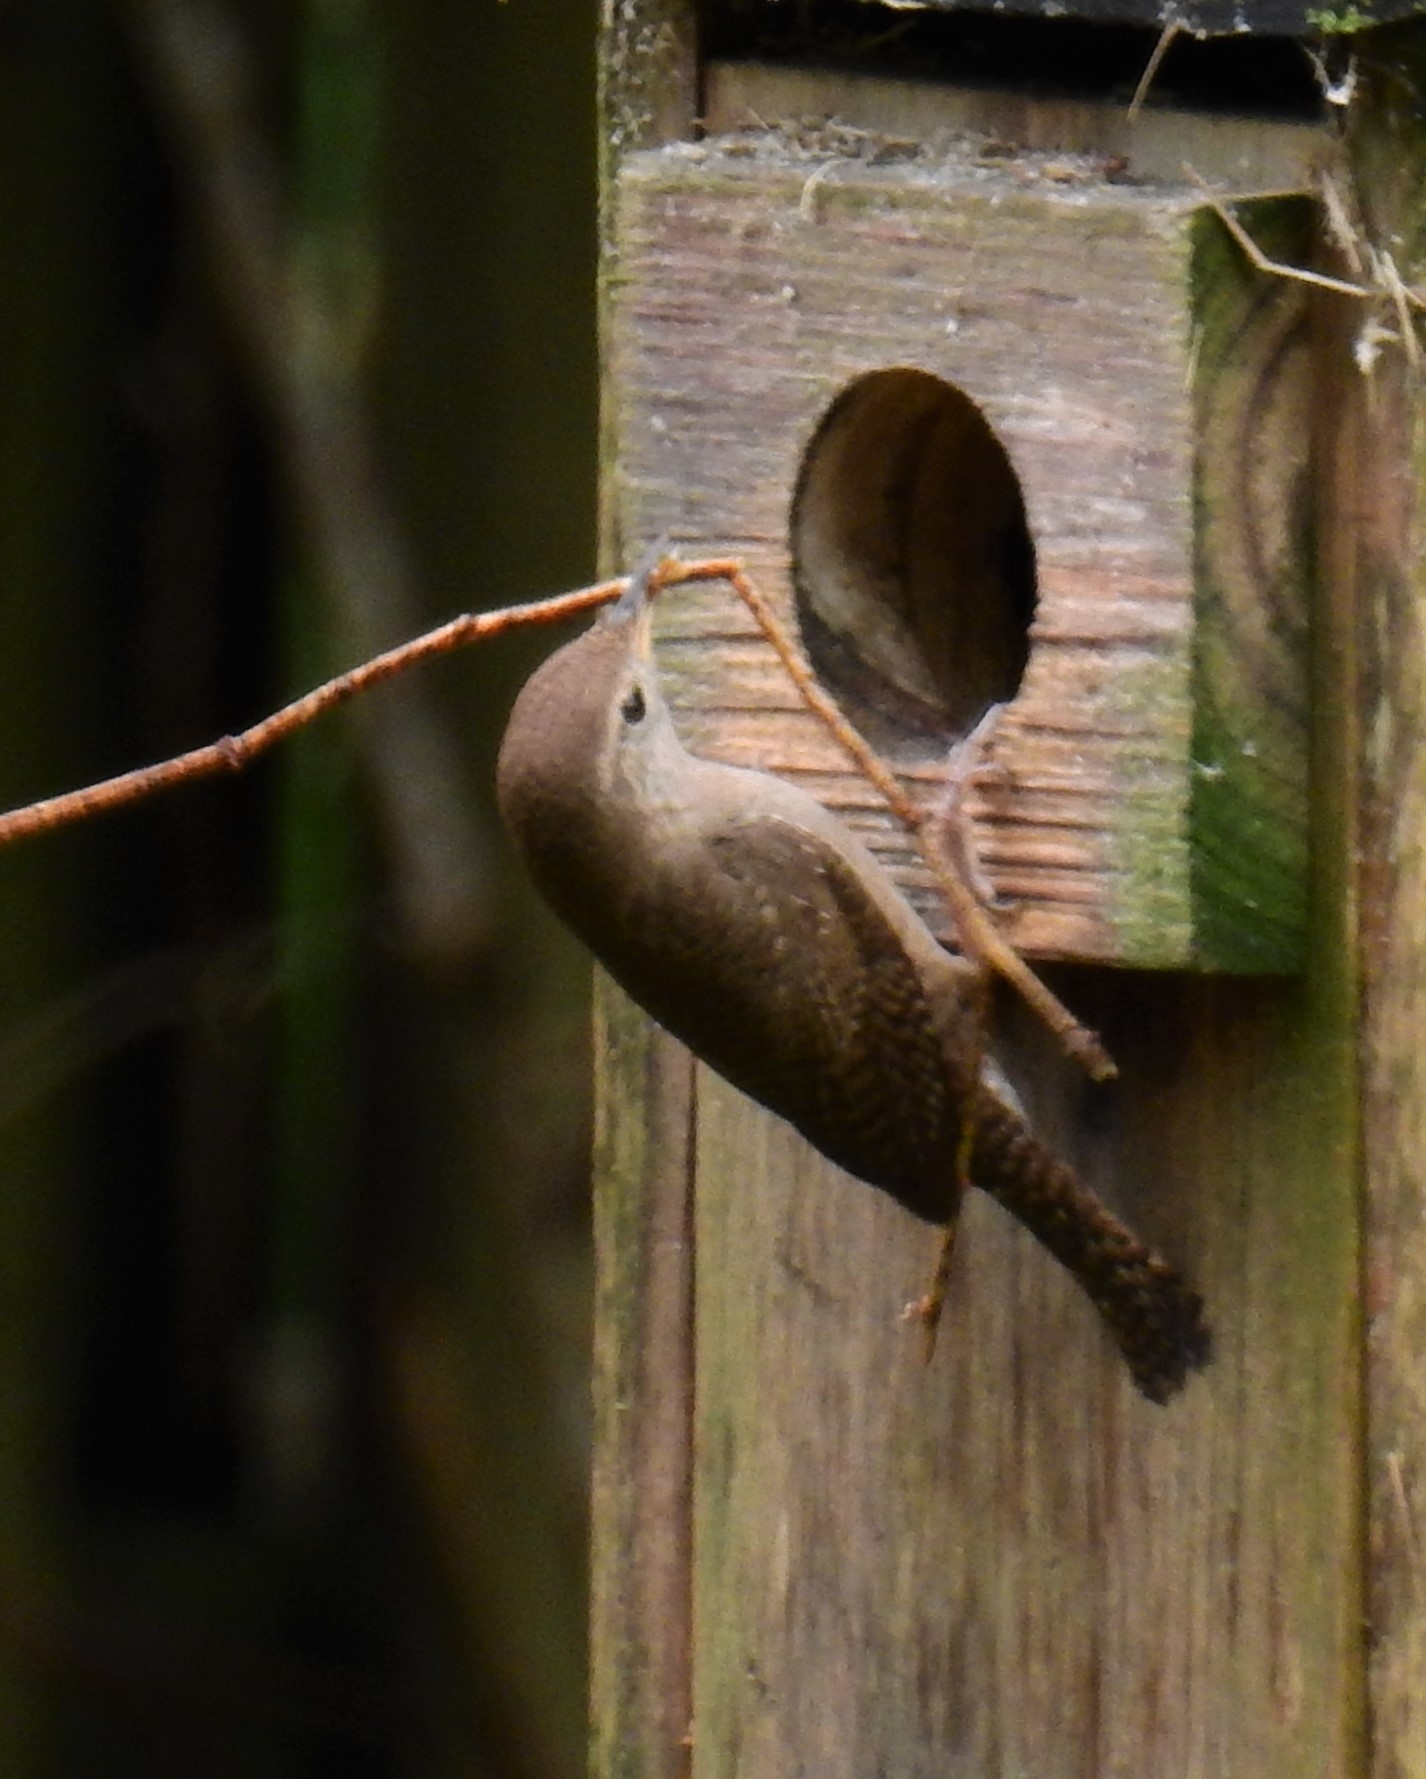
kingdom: Animalia
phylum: Chordata
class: Aves
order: Passeriformes
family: Troglodytidae
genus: Troglodytes
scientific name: Troglodytes aedon
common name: House wren
